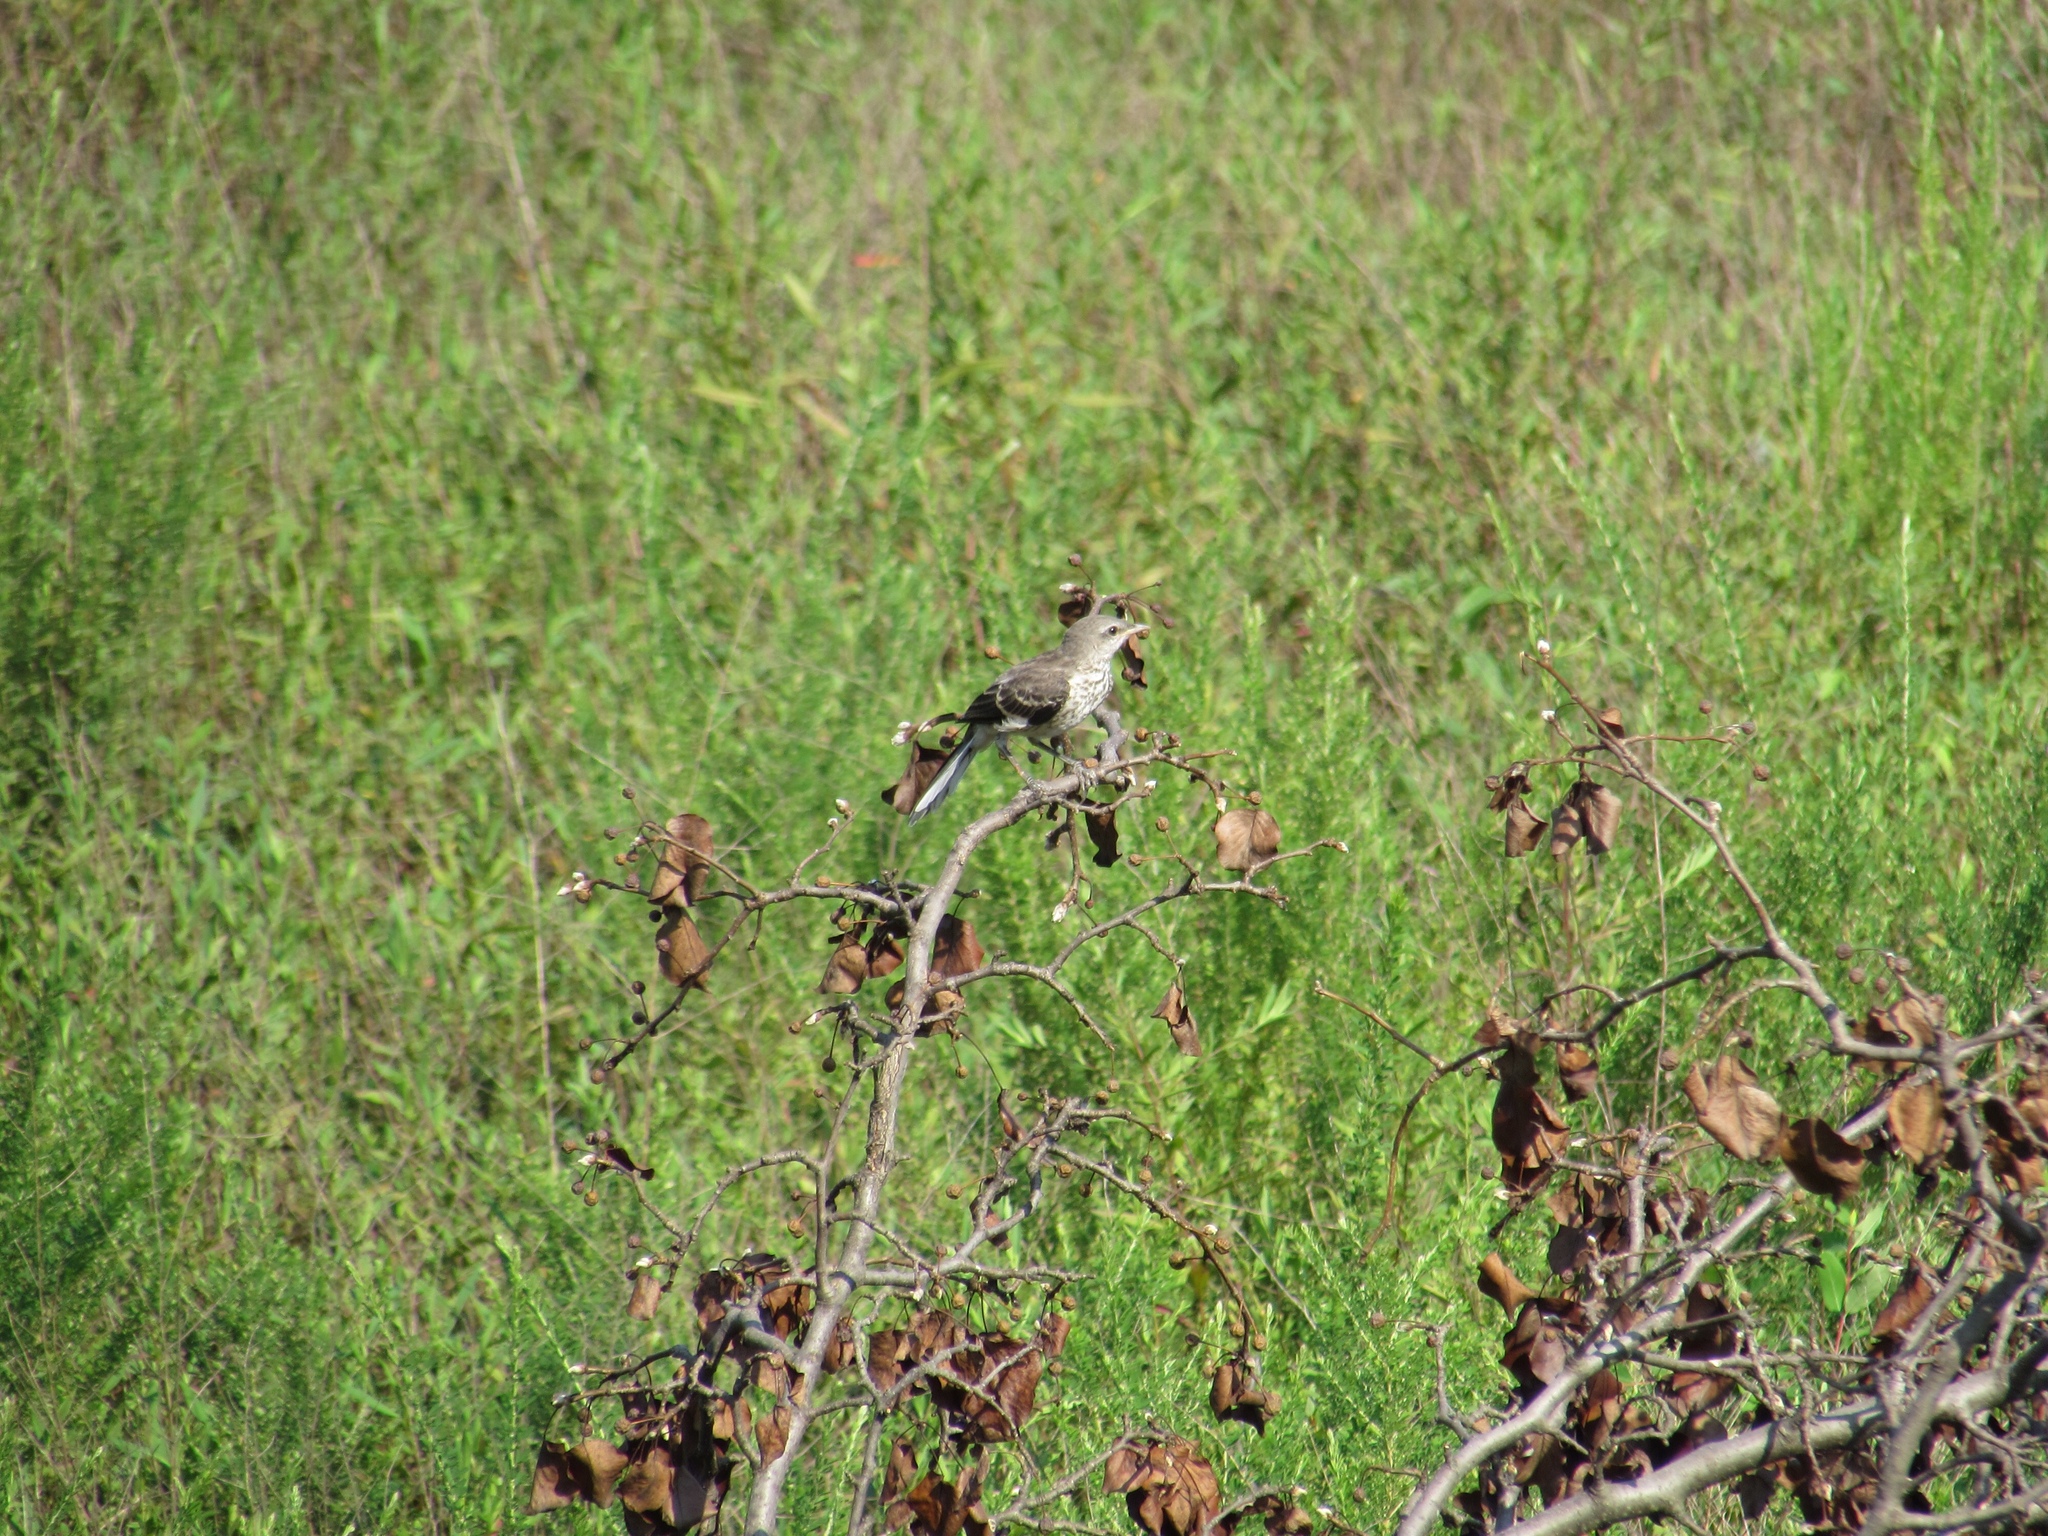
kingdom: Animalia
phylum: Chordata
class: Aves
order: Passeriformes
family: Mimidae
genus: Mimus
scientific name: Mimus polyglottos
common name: Northern mockingbird
